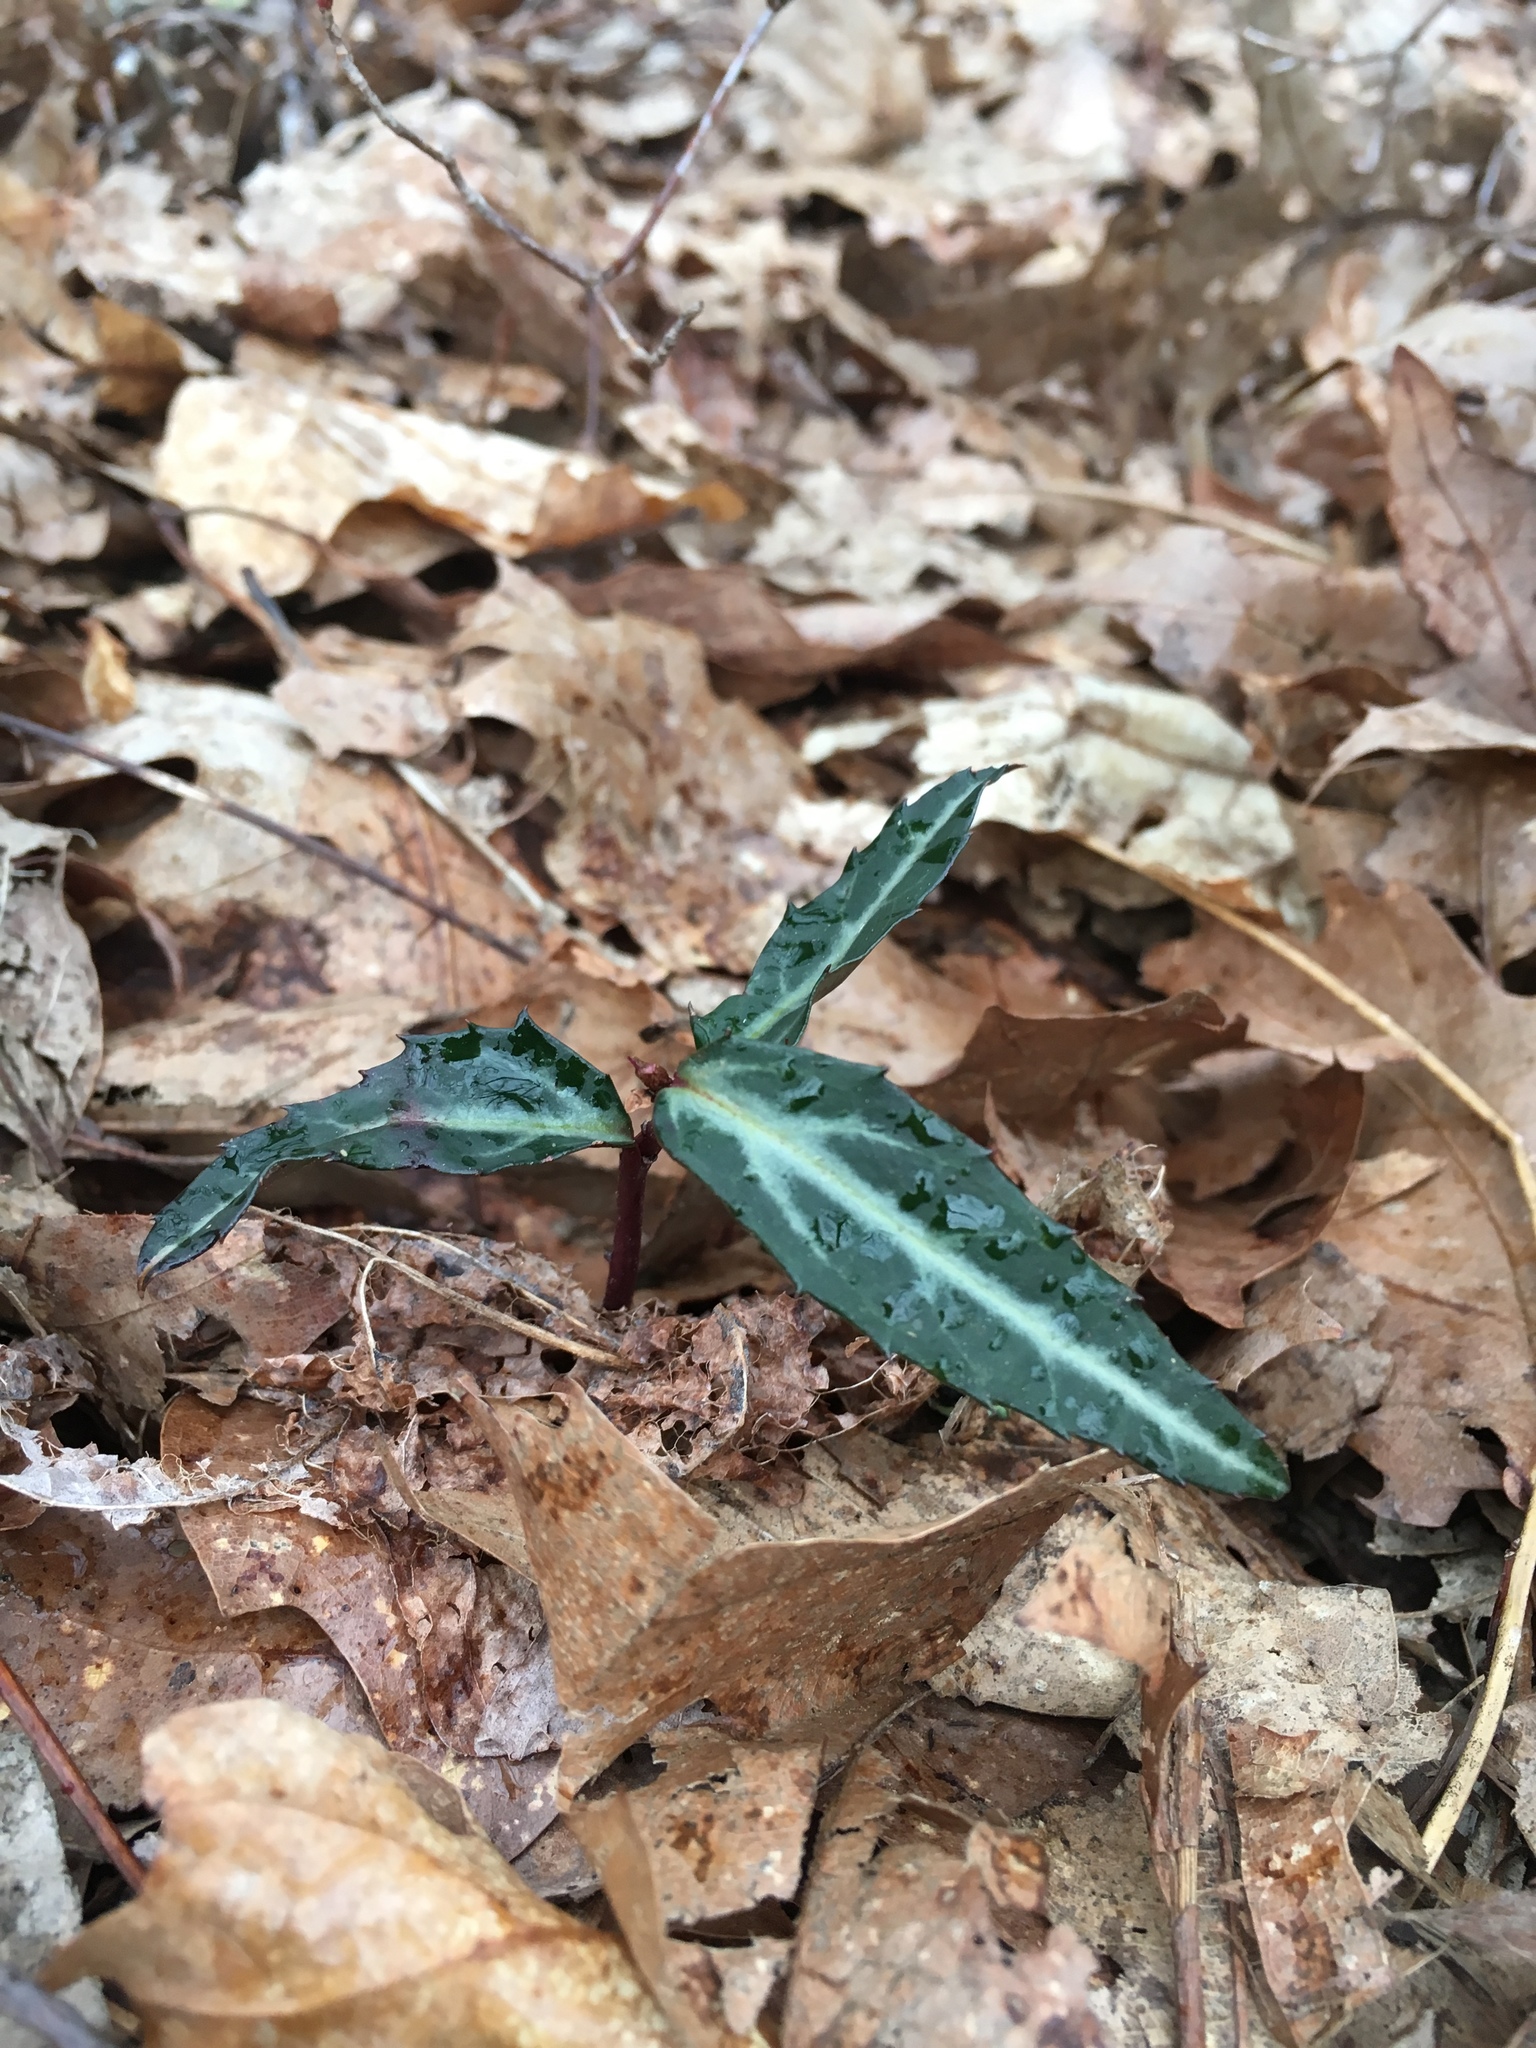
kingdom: Plantae
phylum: Tracheophyta
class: Magnoliopsida
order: Ericales
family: Ericaceae
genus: Chimaphila
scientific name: Chimaphila maculata
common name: Spotted pipsissewa
